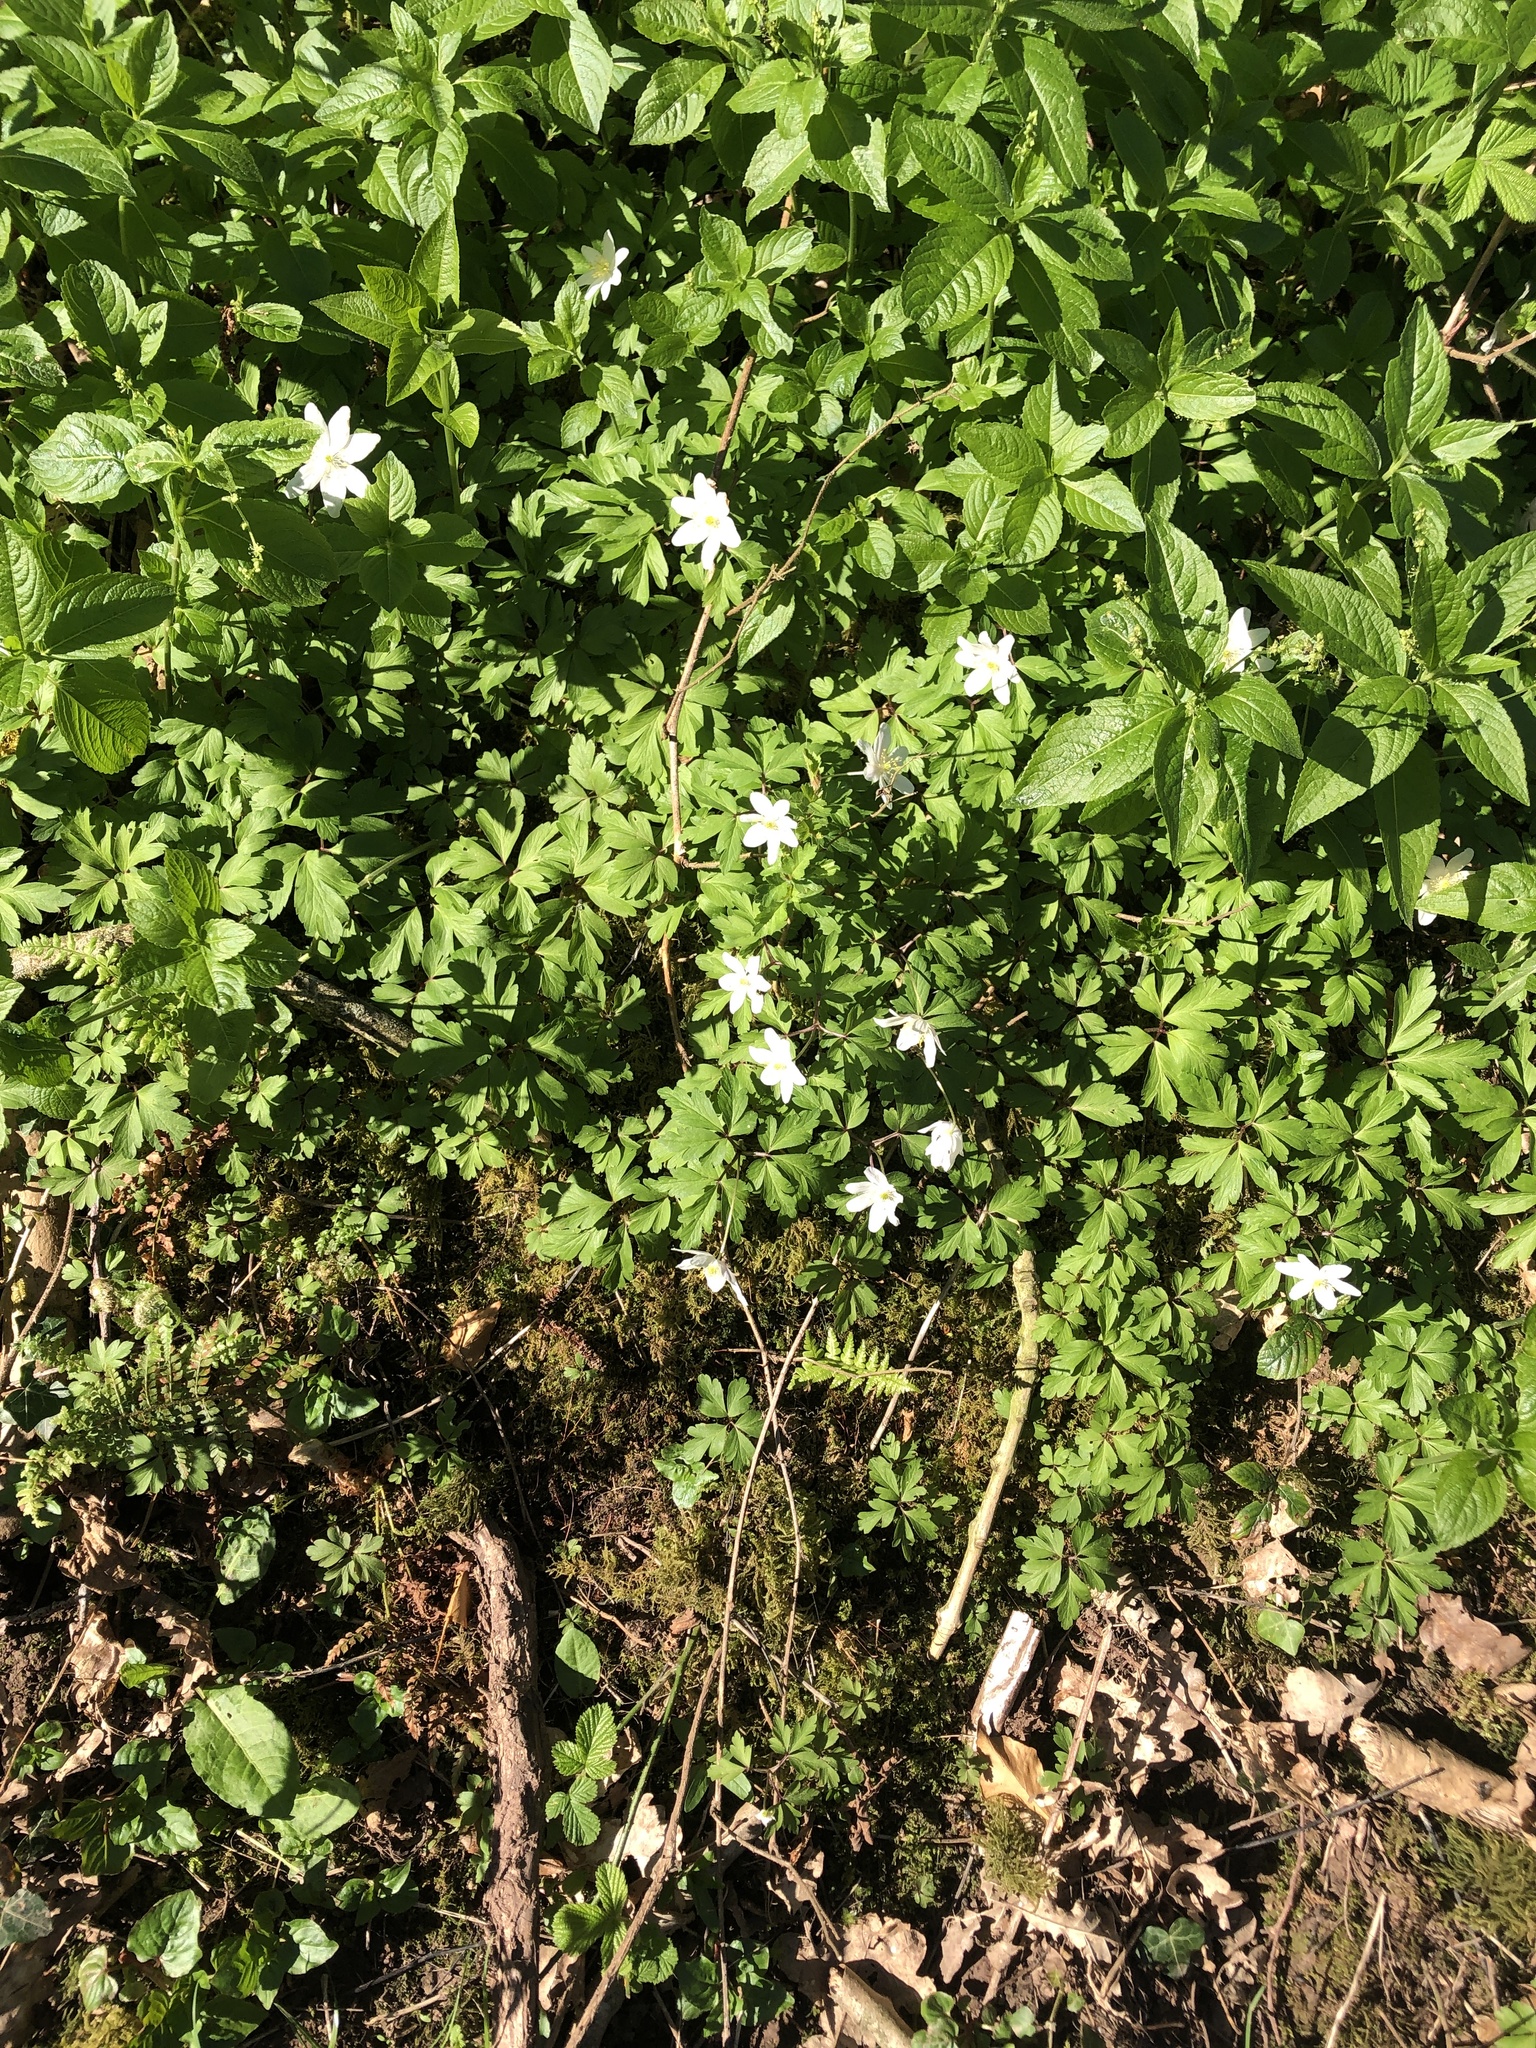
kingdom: Plantae
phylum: Tracheophyta
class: Magnoliopsida
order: Ranunculales
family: Ranunculaceae
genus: Anemone
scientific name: Anemone nemorosa
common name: Wood anemone
